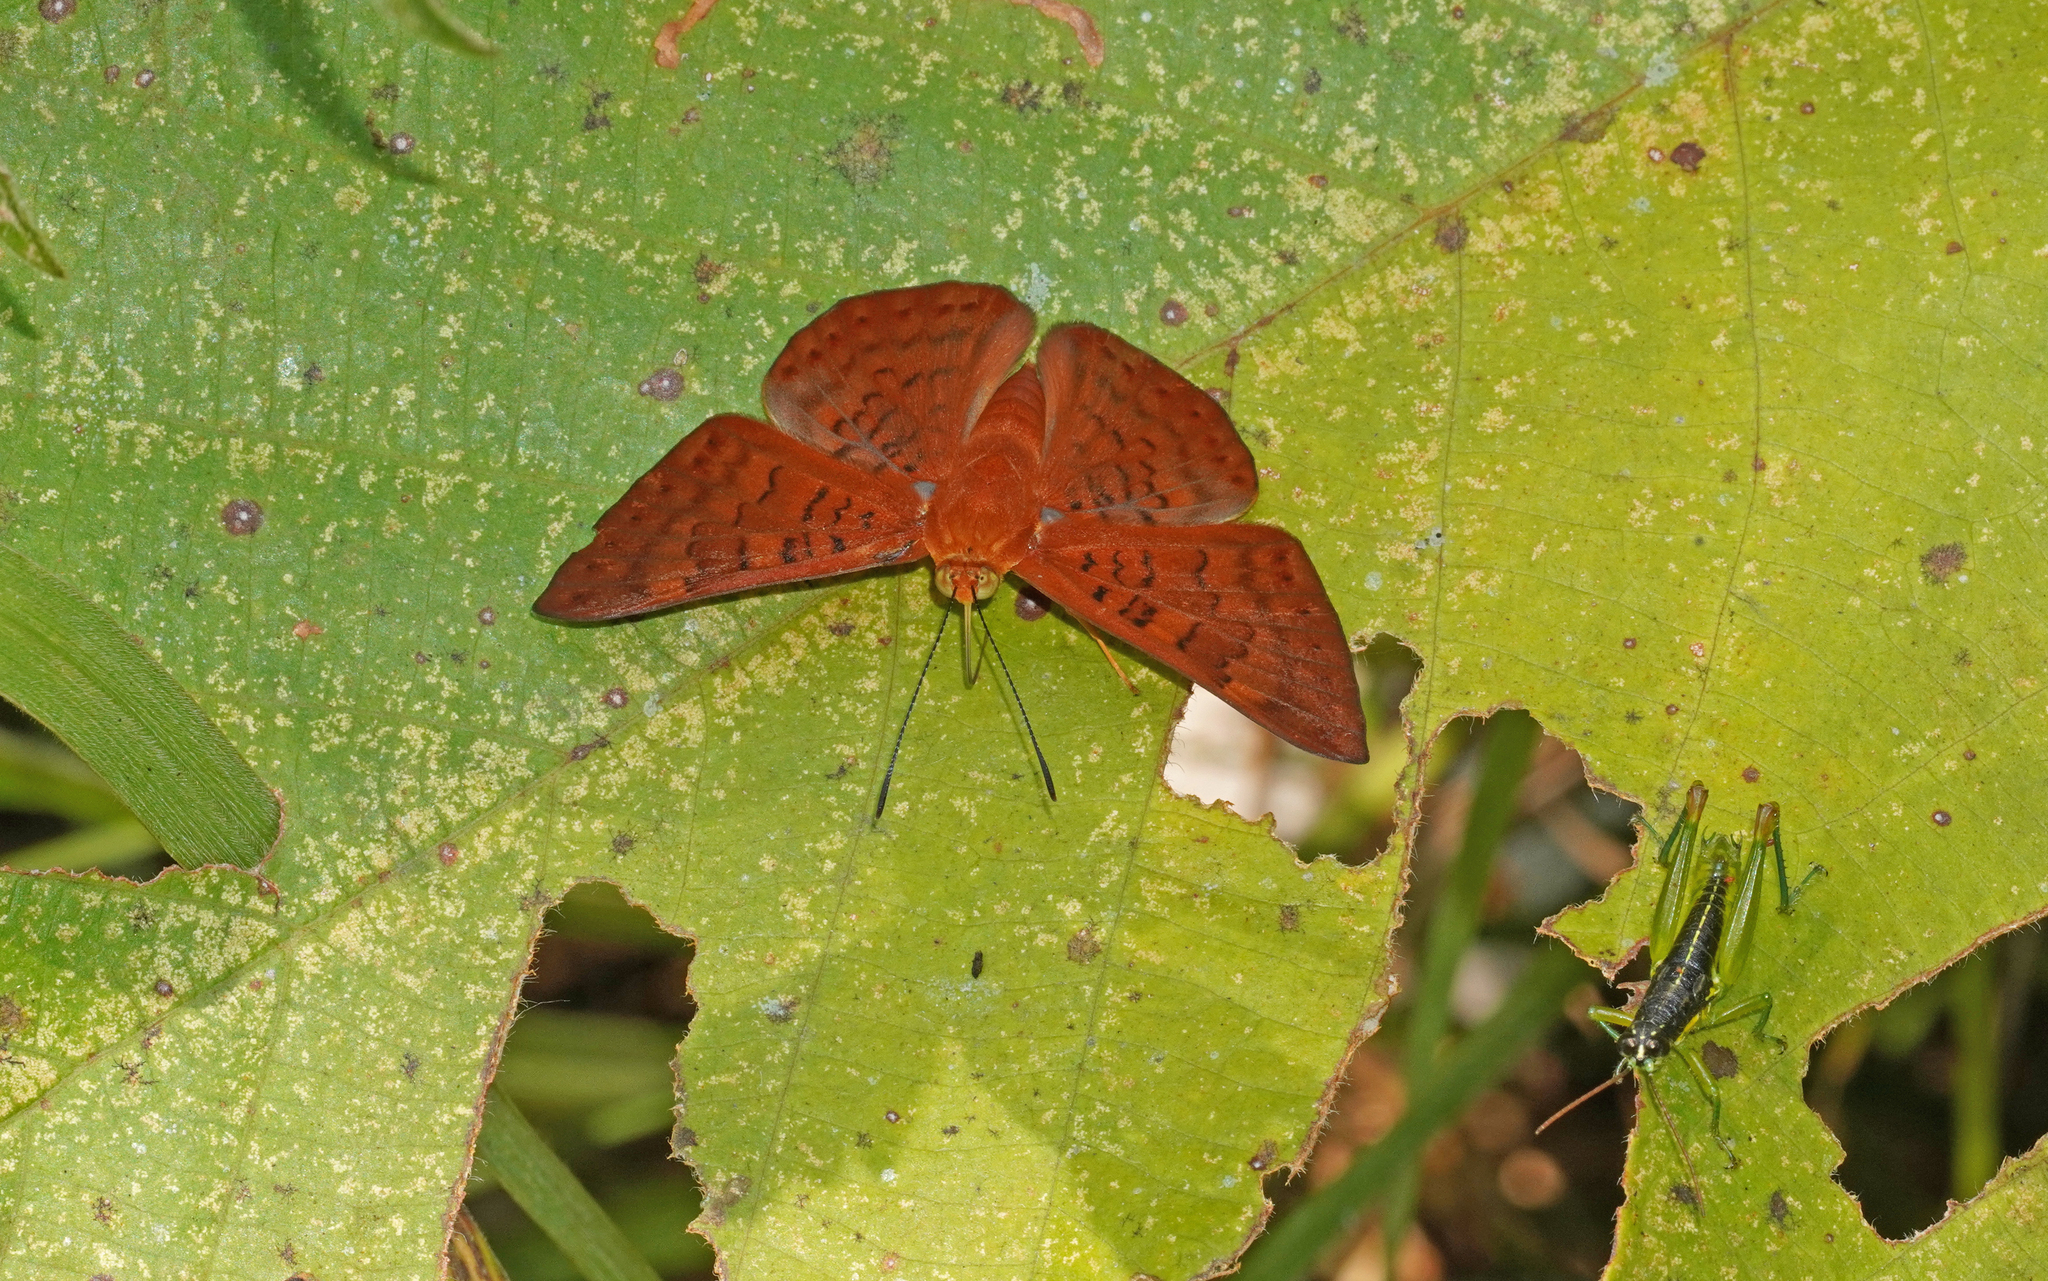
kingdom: Animalia
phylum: Arthropoda
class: Insecta
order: Lepidoptera
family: Lycaenidae
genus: Emesis
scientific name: Emesis mandana
